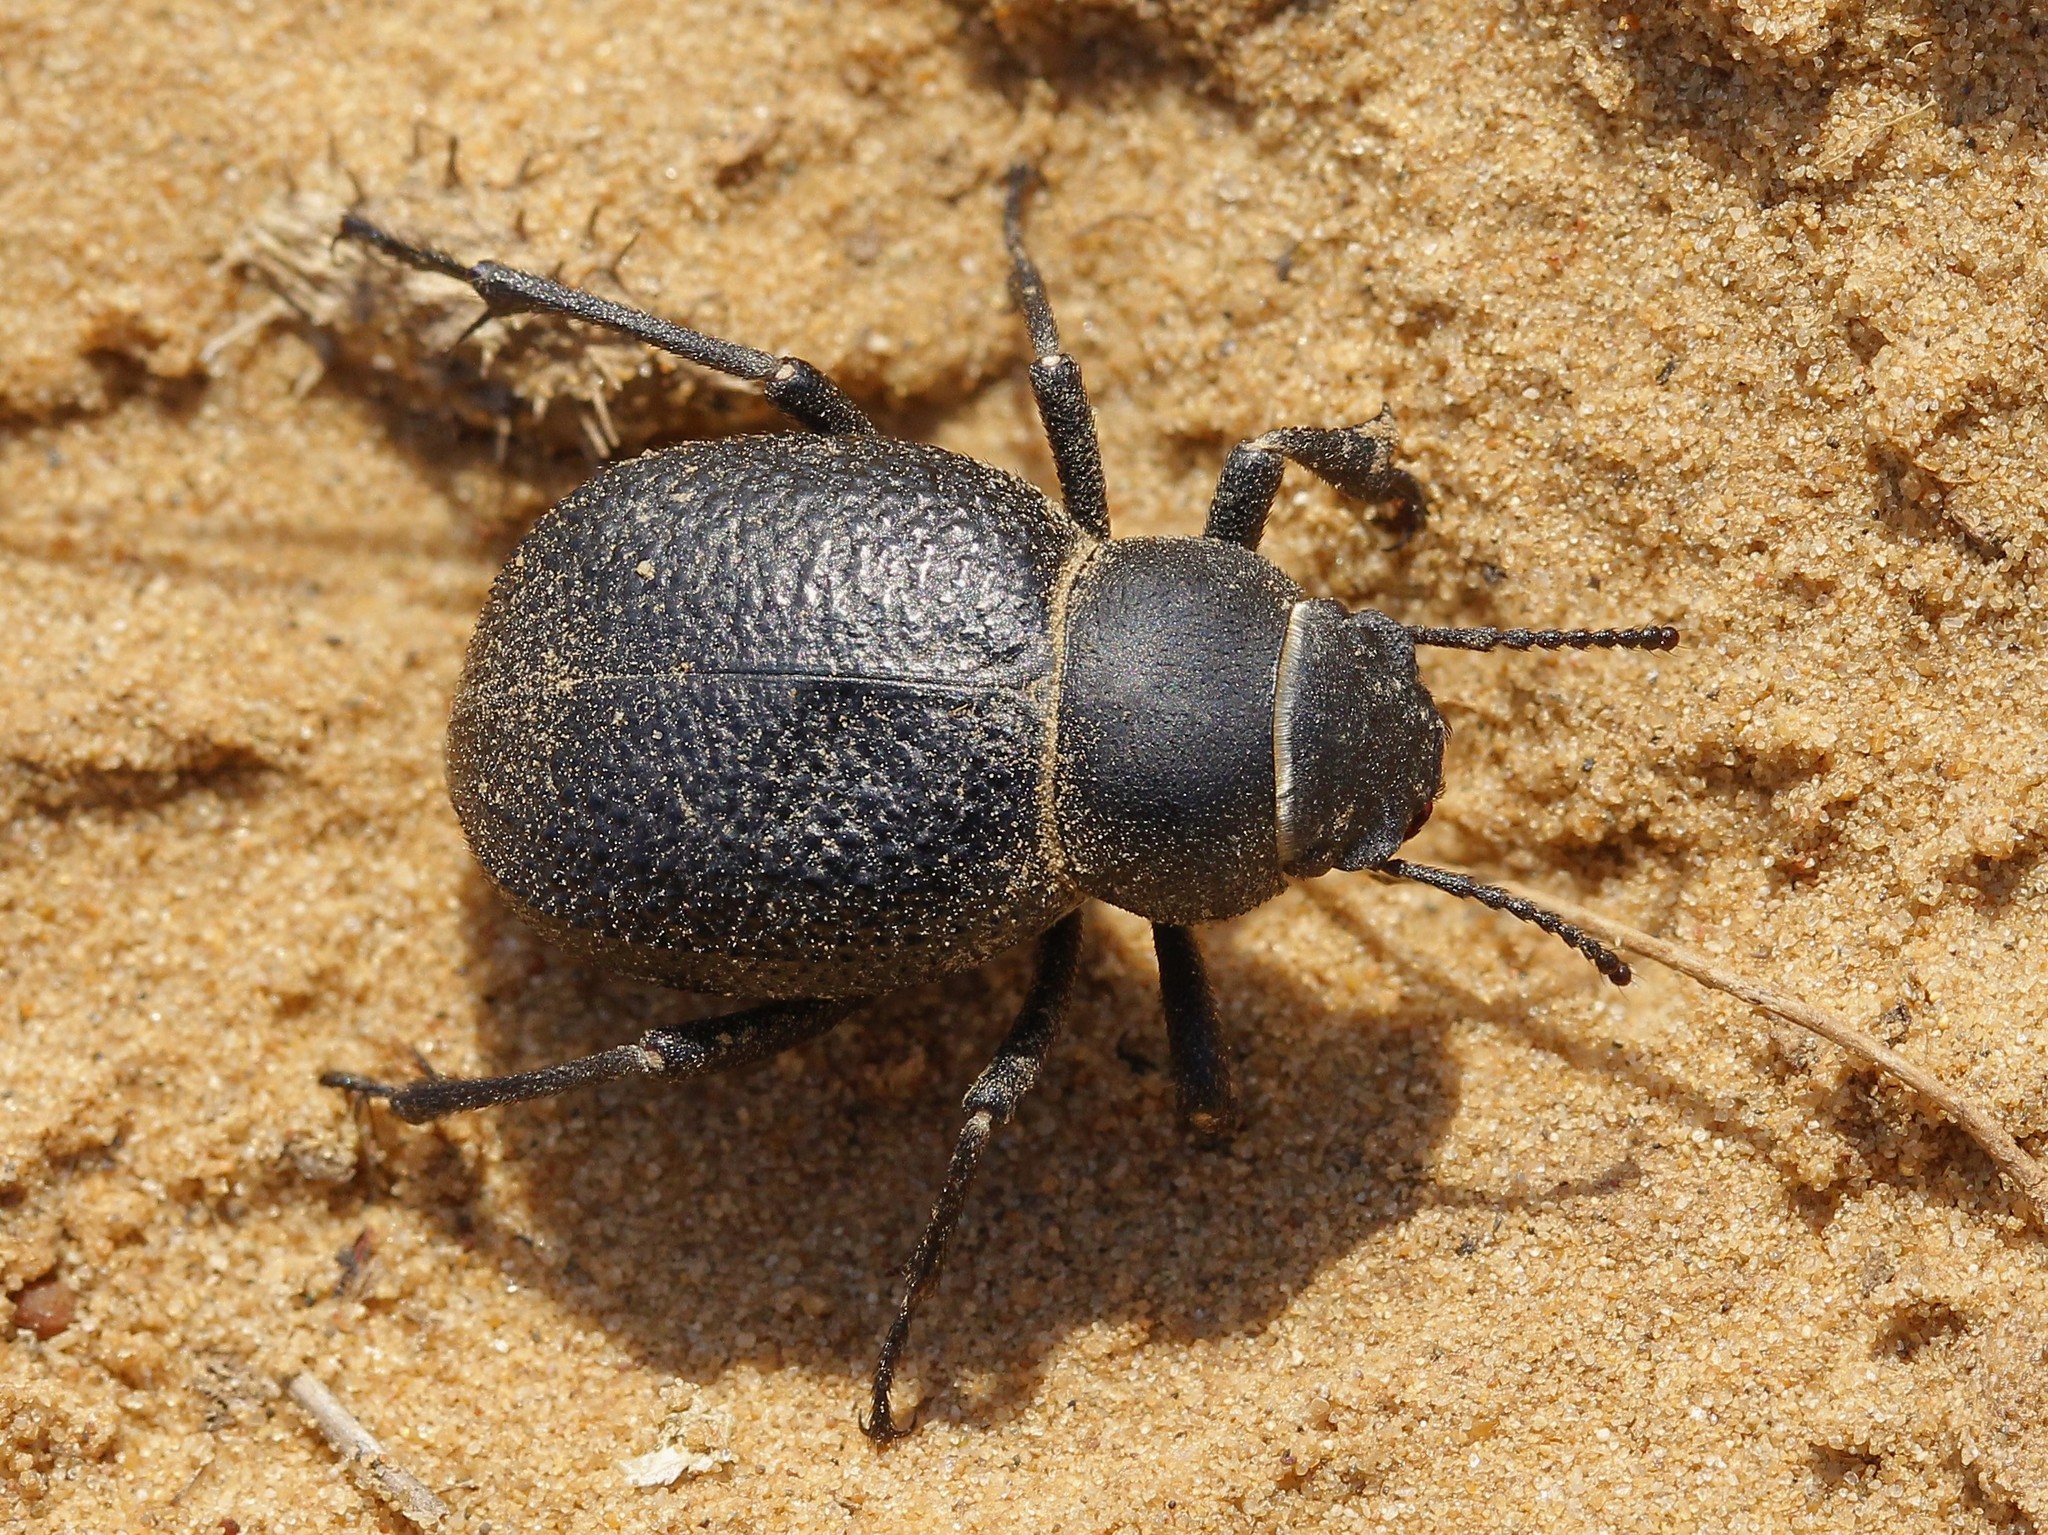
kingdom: Animalia
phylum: Arthropoda
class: Insecta
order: Coleoptera
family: Tenebrionidae
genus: Pimelia
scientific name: Pimelia capito
